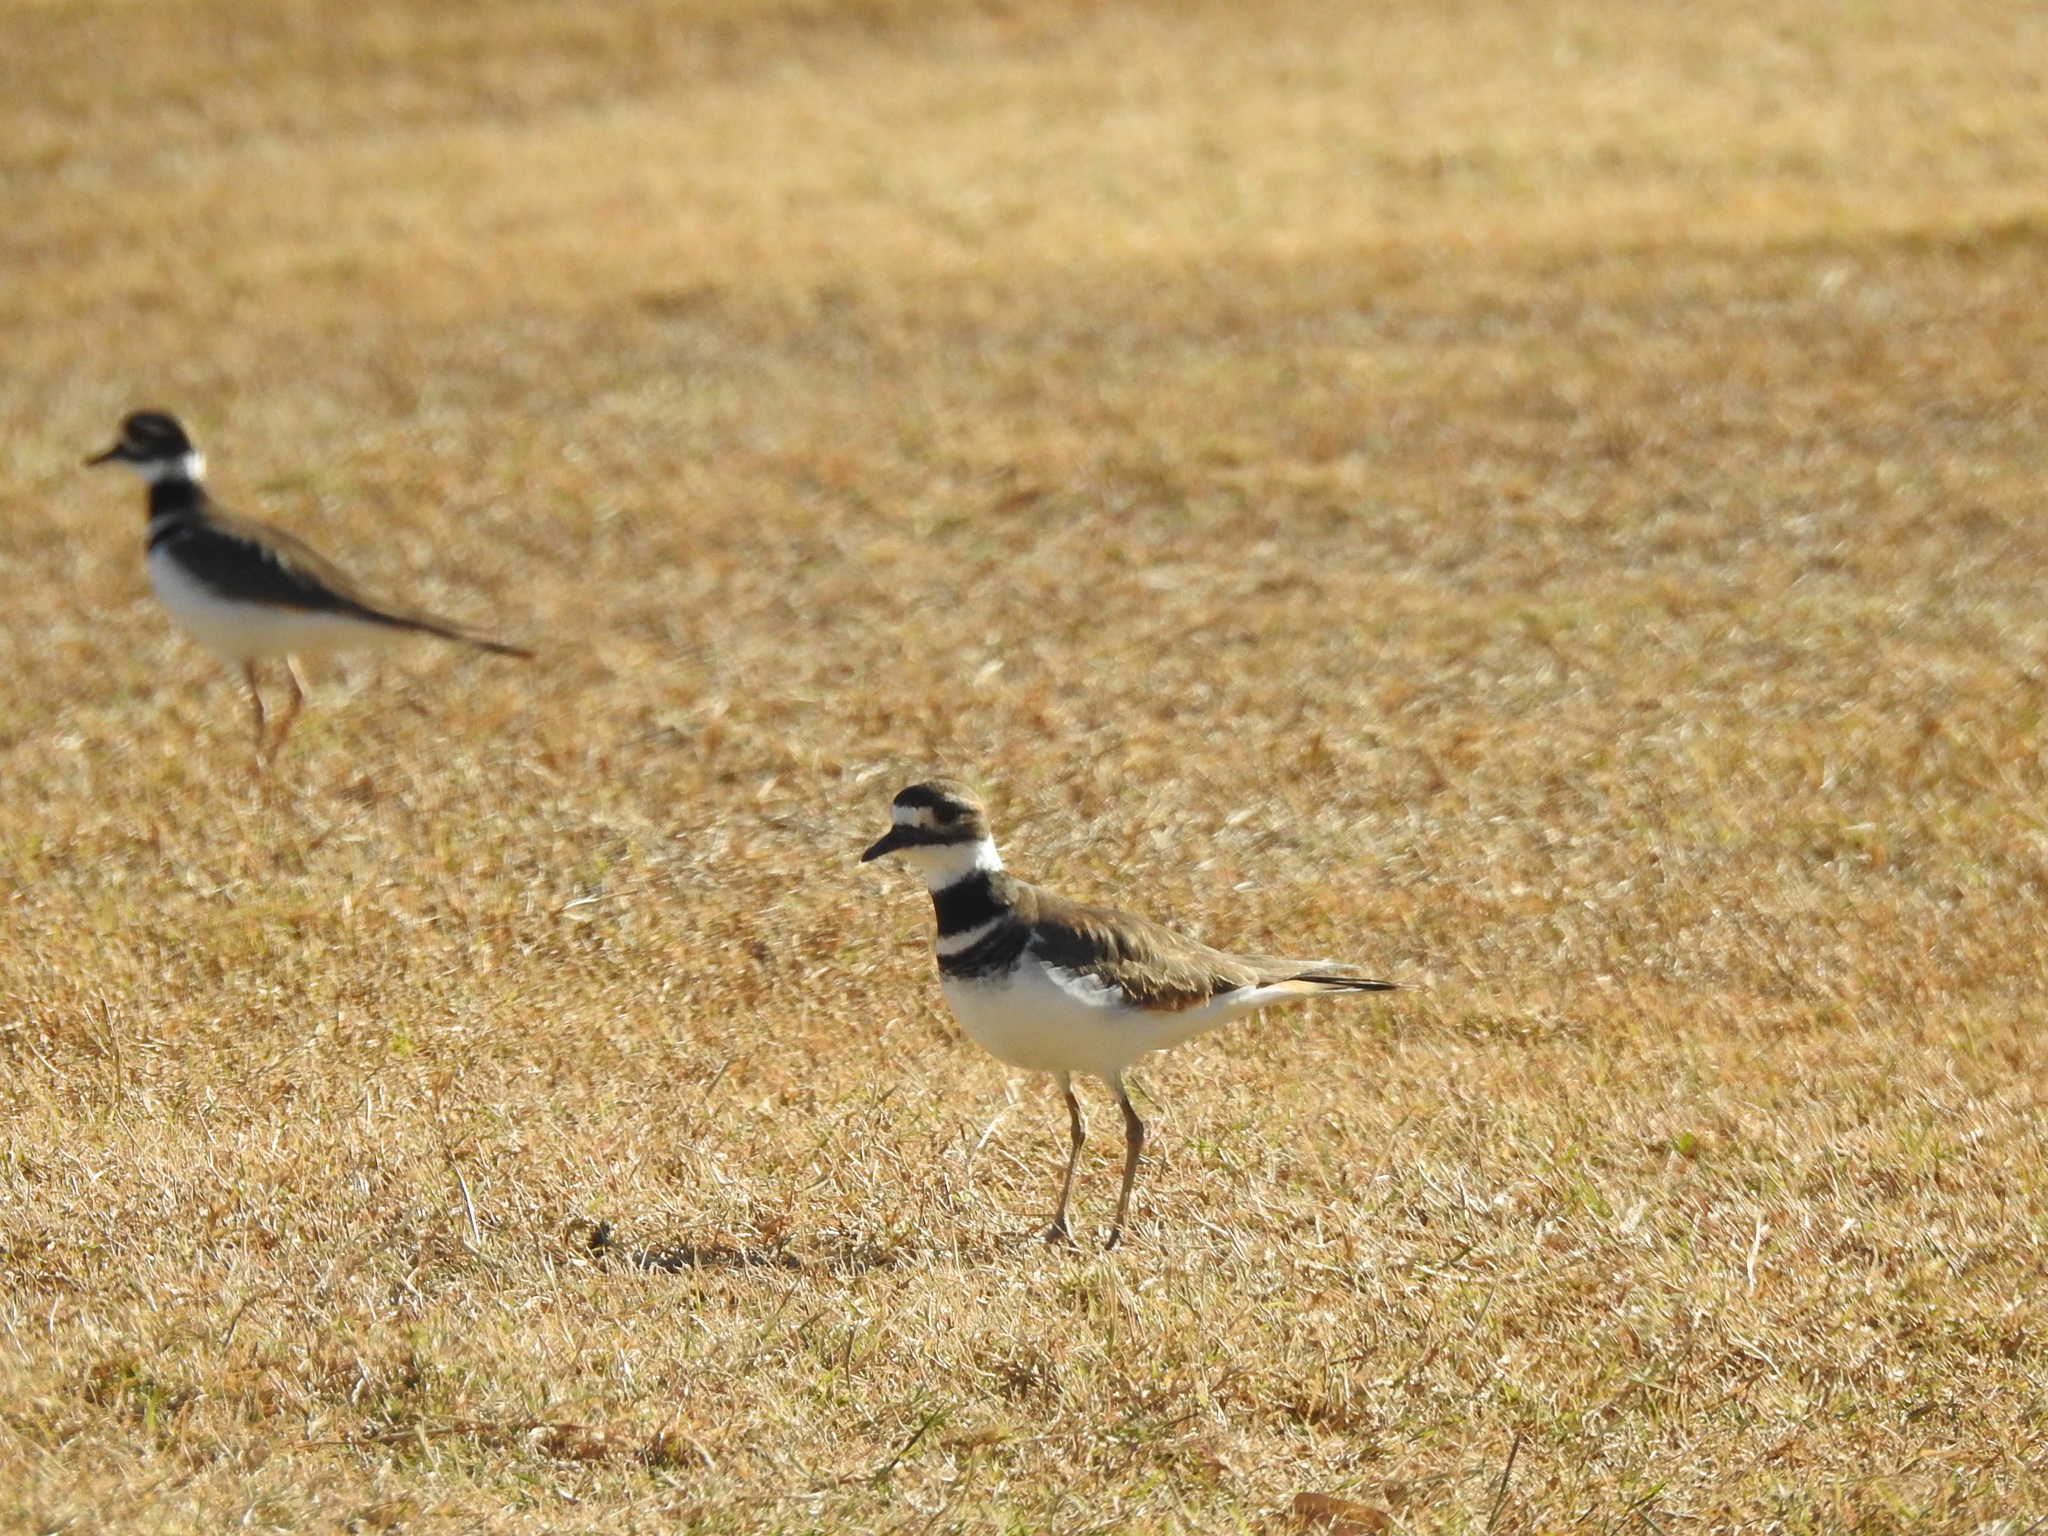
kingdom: Animalia
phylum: Chordata
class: Aves
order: Charadriiformes
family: Charadriidae
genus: Charadrius
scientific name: Charadrius vociferus
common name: Killdeer
